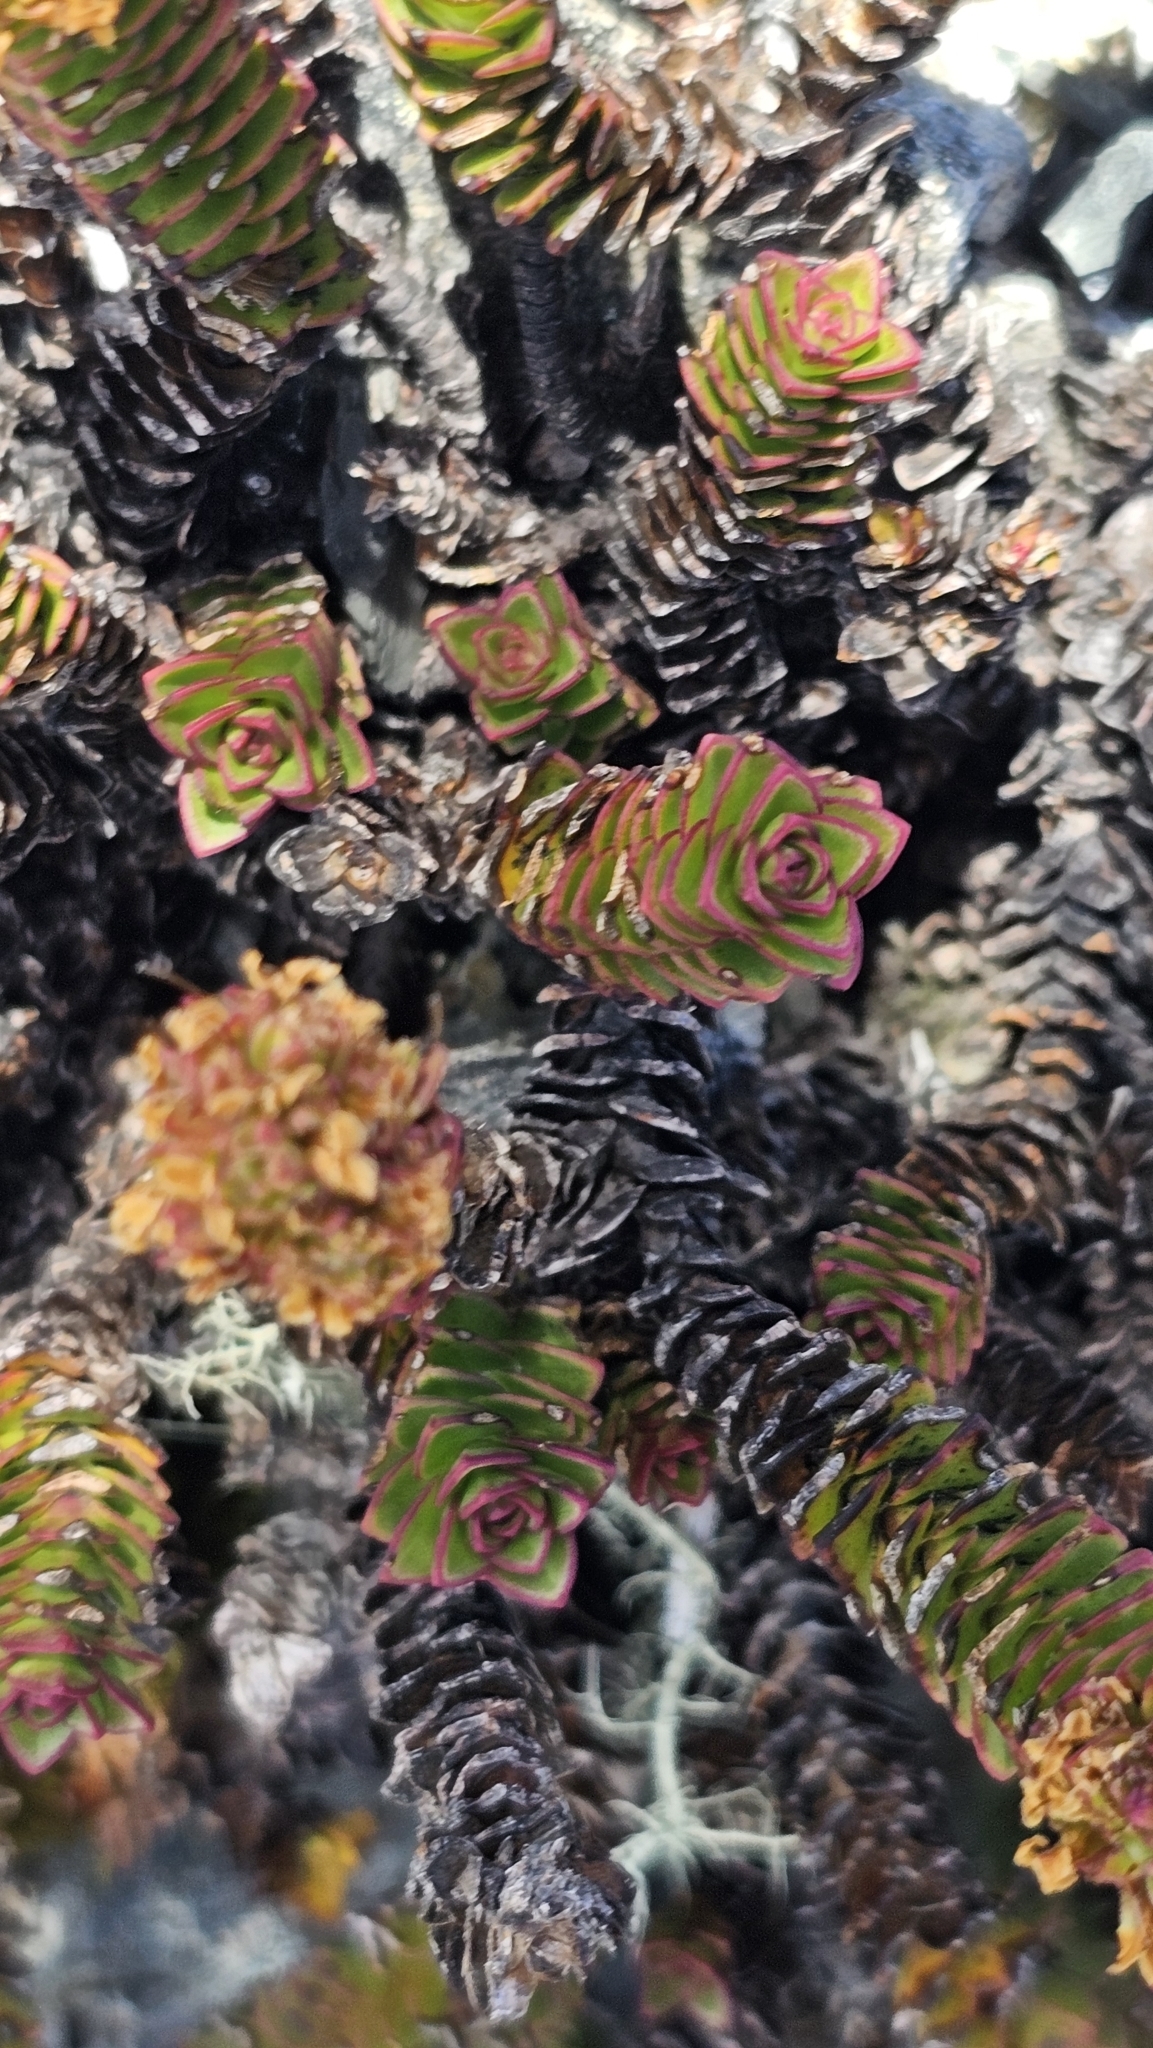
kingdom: Plantae
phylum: Tracheophyta
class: Magnoliopsida
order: Lamiales
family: Plantaginaceae
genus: Veronica
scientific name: Veronica macrocalyx
